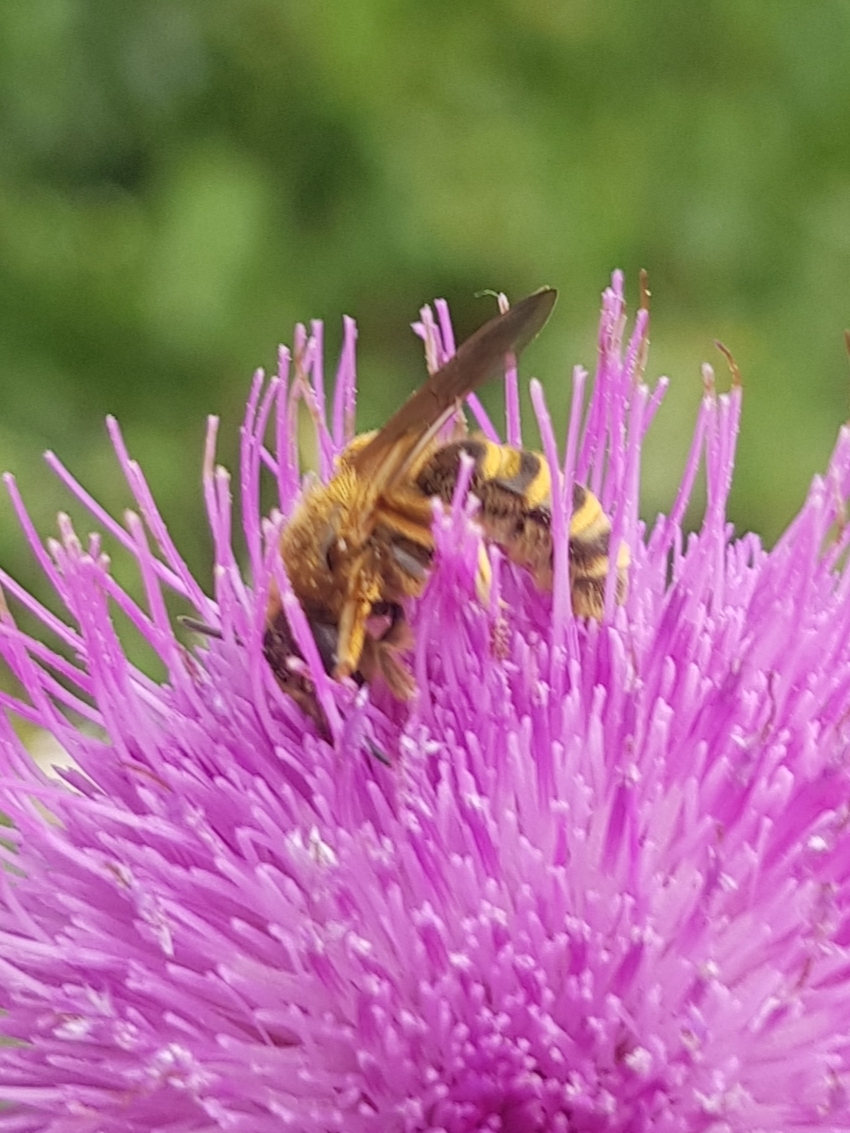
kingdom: Animalia
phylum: Arthropoda
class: Insecta
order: Hymenoptera
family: Halictidae
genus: Halictus
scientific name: Halictus scabiosae
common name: Great banded furrow bee
